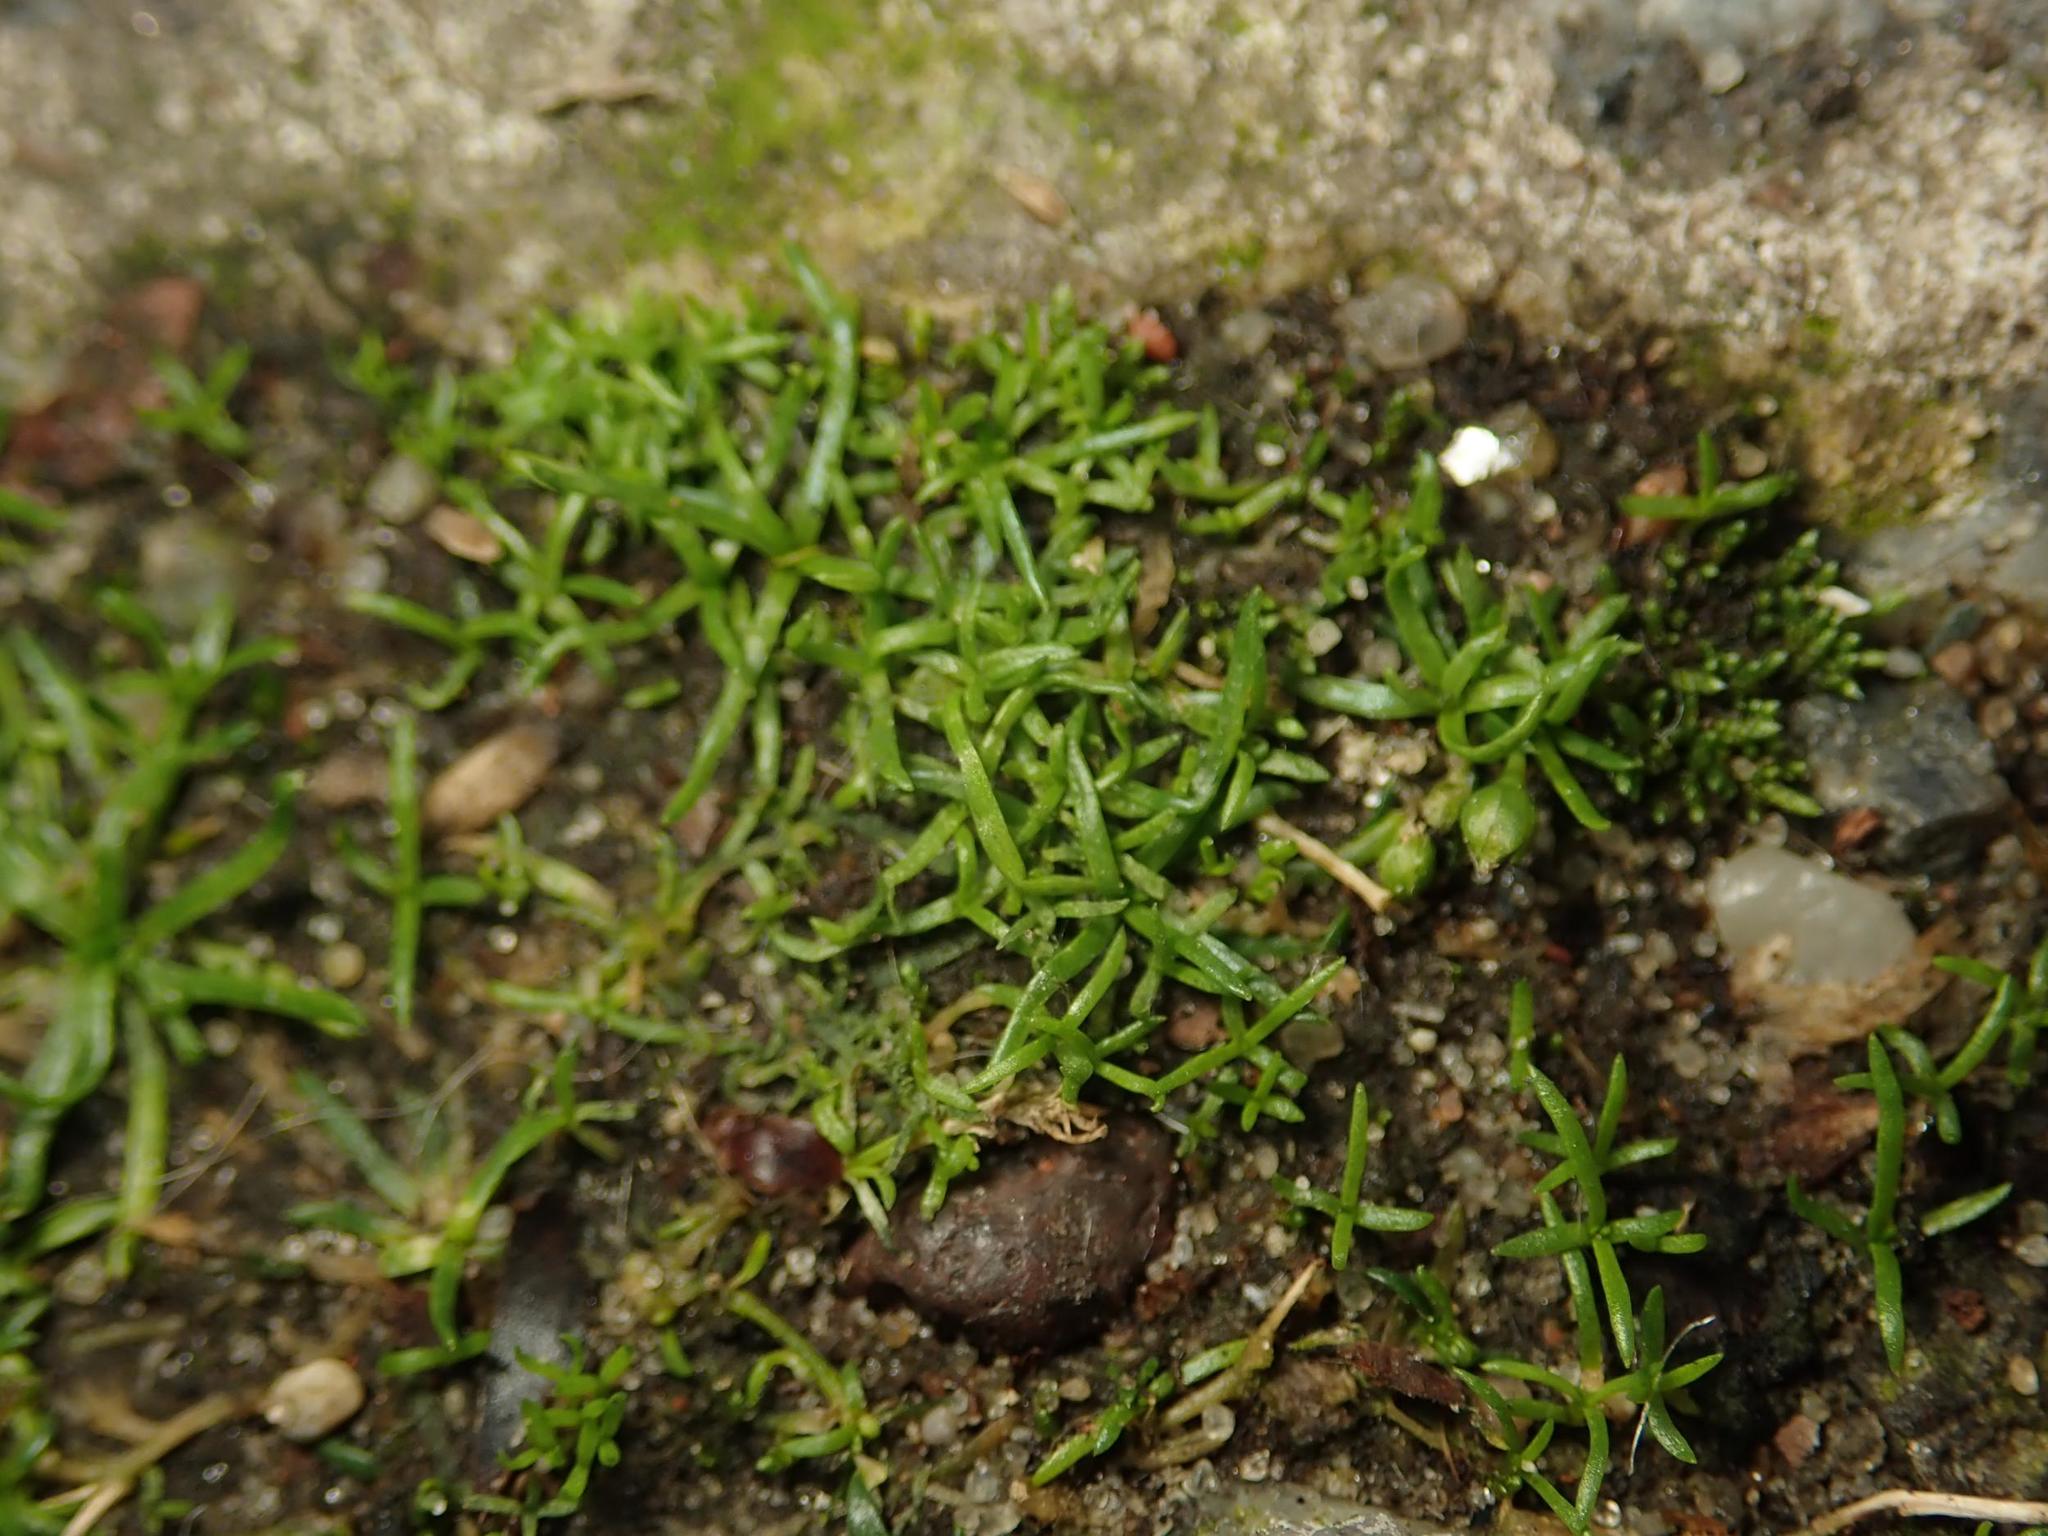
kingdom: Plantae
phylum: Tracheophyta
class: Magnoliopsida
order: Caryophyllales
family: Caryophyllaceae
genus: Sagina
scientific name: Sagina procumbens
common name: Procumbent pearlwort
